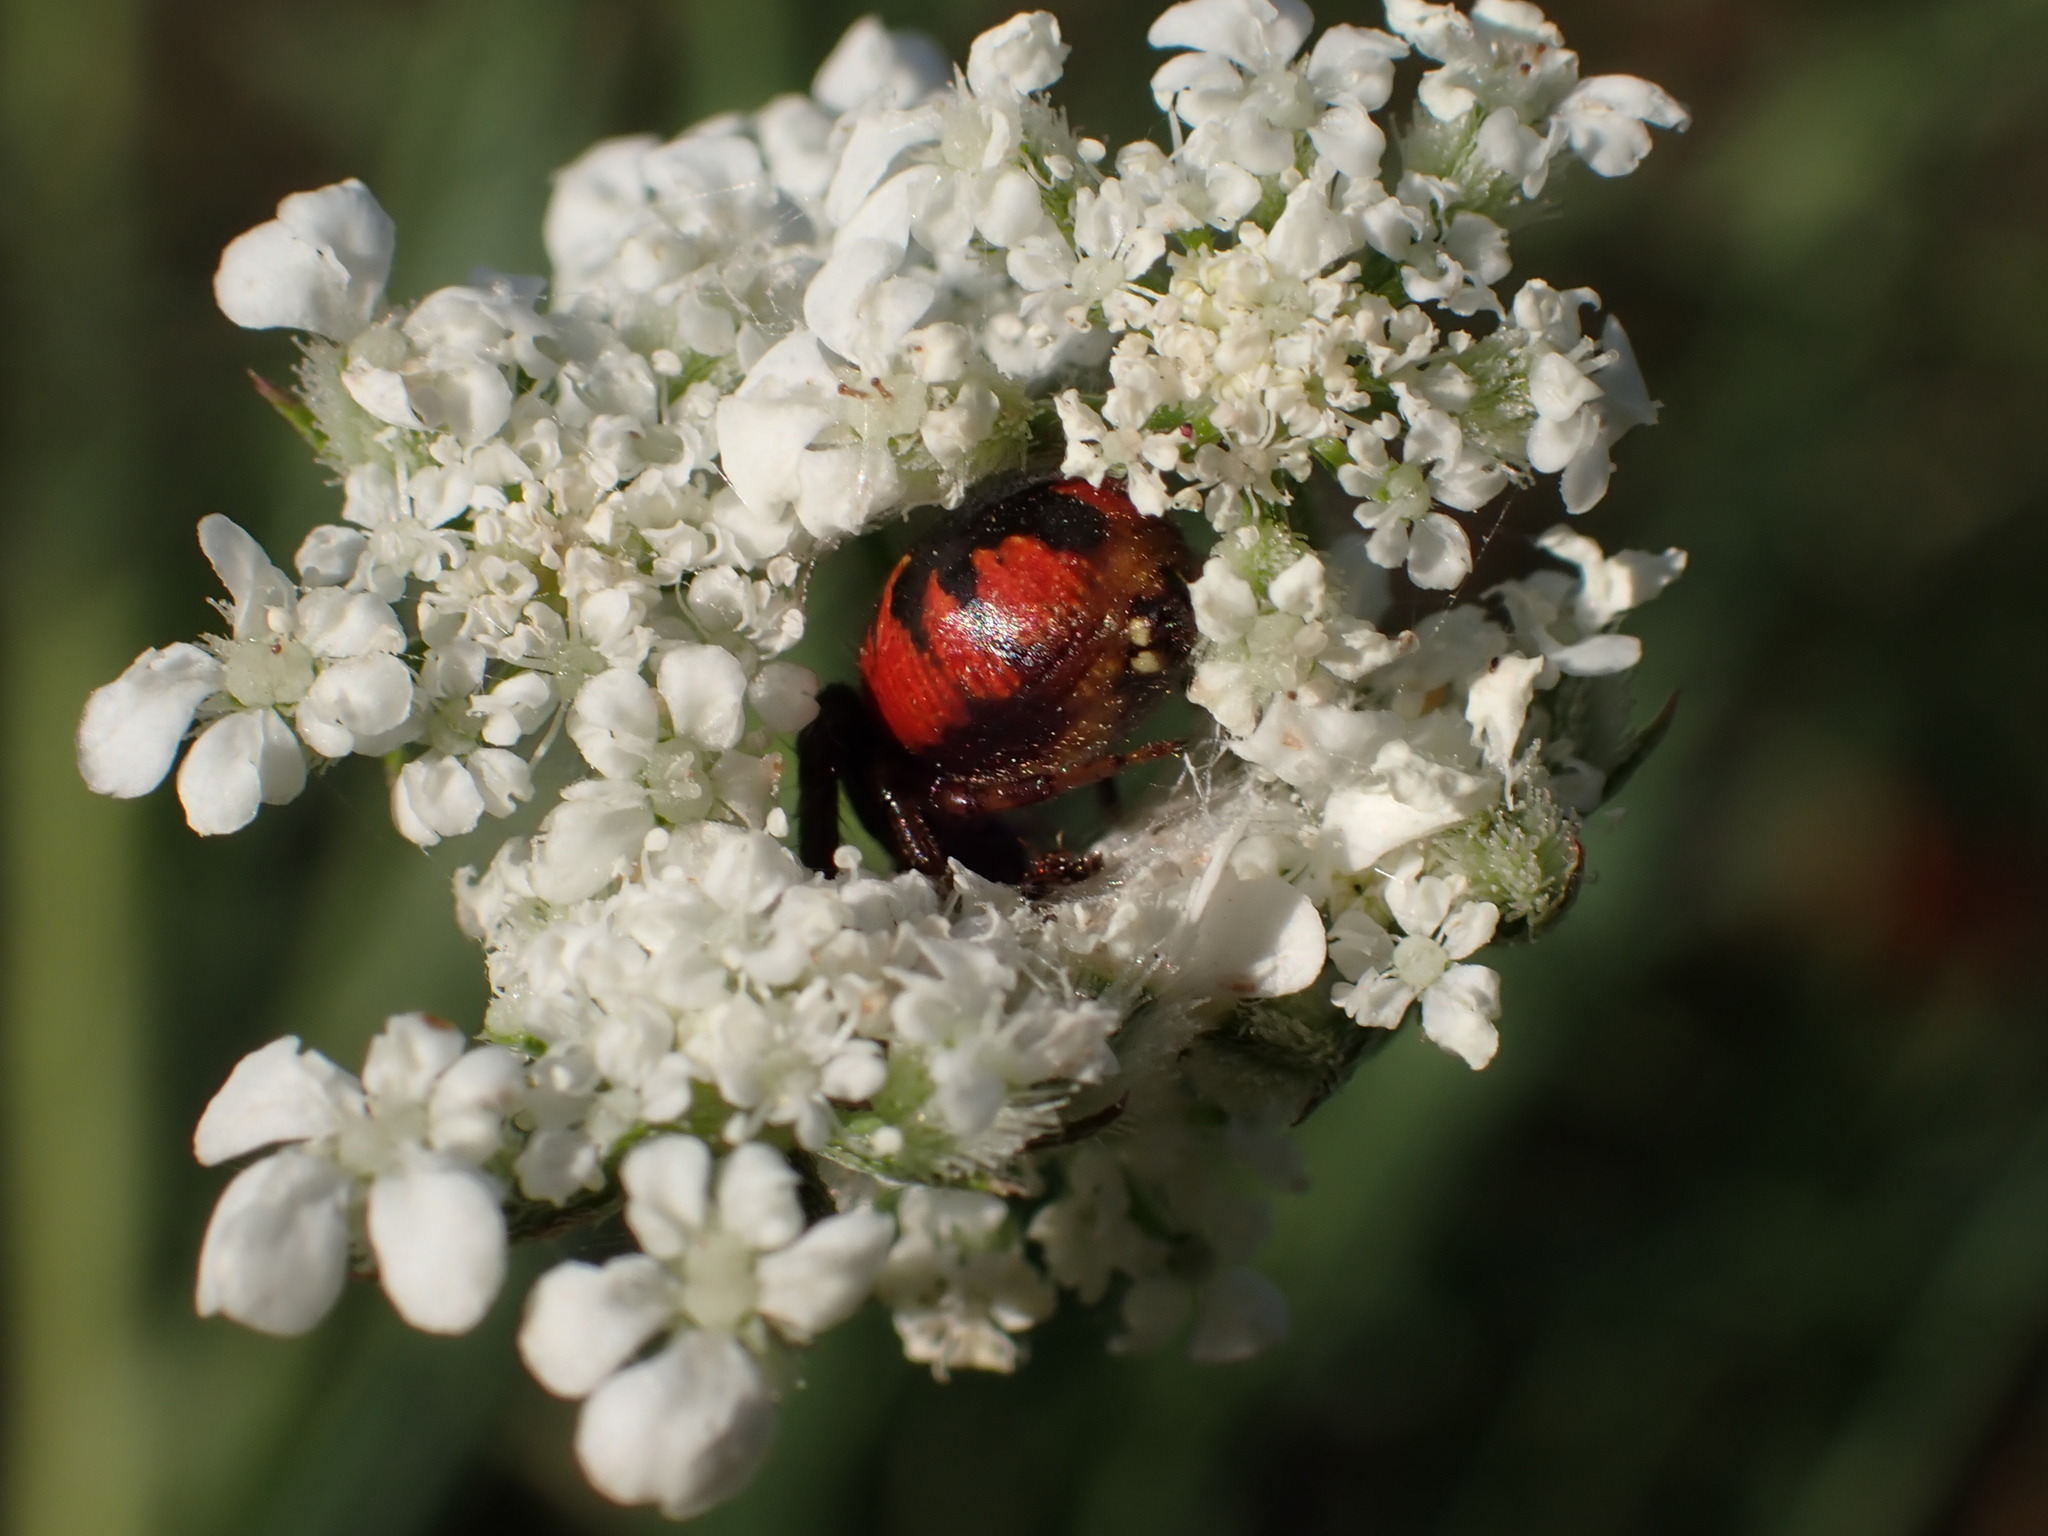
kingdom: Animalia
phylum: Arthropoda
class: Arachnida
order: Araneae
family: Thomisidae
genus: Synema
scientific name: Synema globosum
